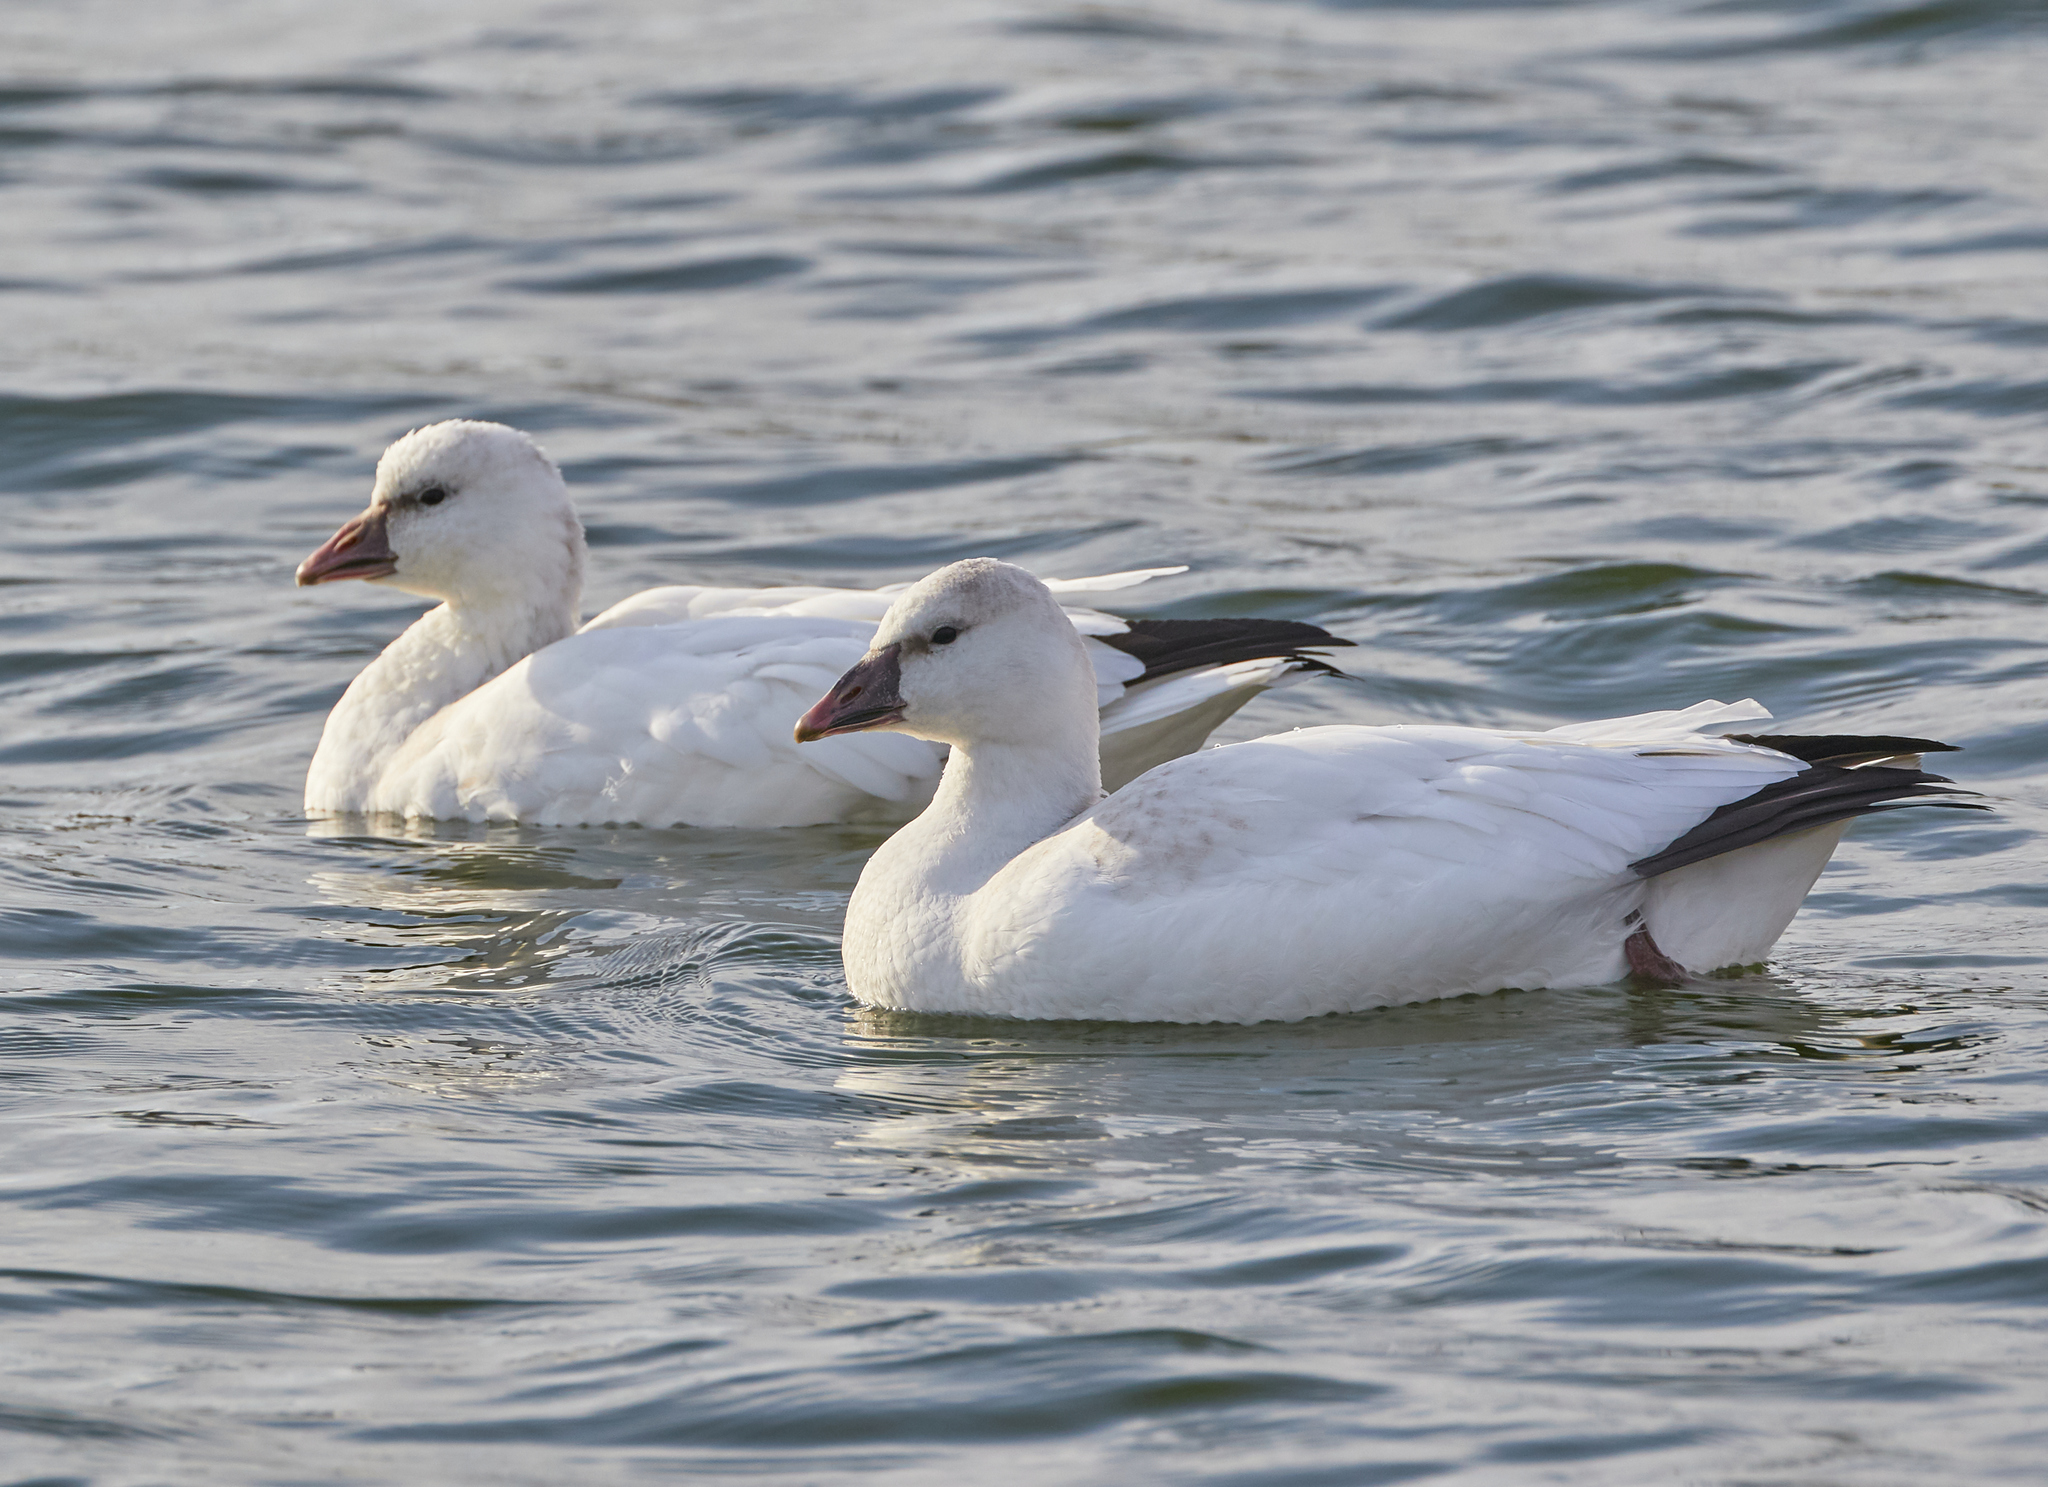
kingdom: Animalia
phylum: Chordata
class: Aves
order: Anseriformes
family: Anatidae
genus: Anser
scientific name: Anser rossii
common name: Ross's goose
